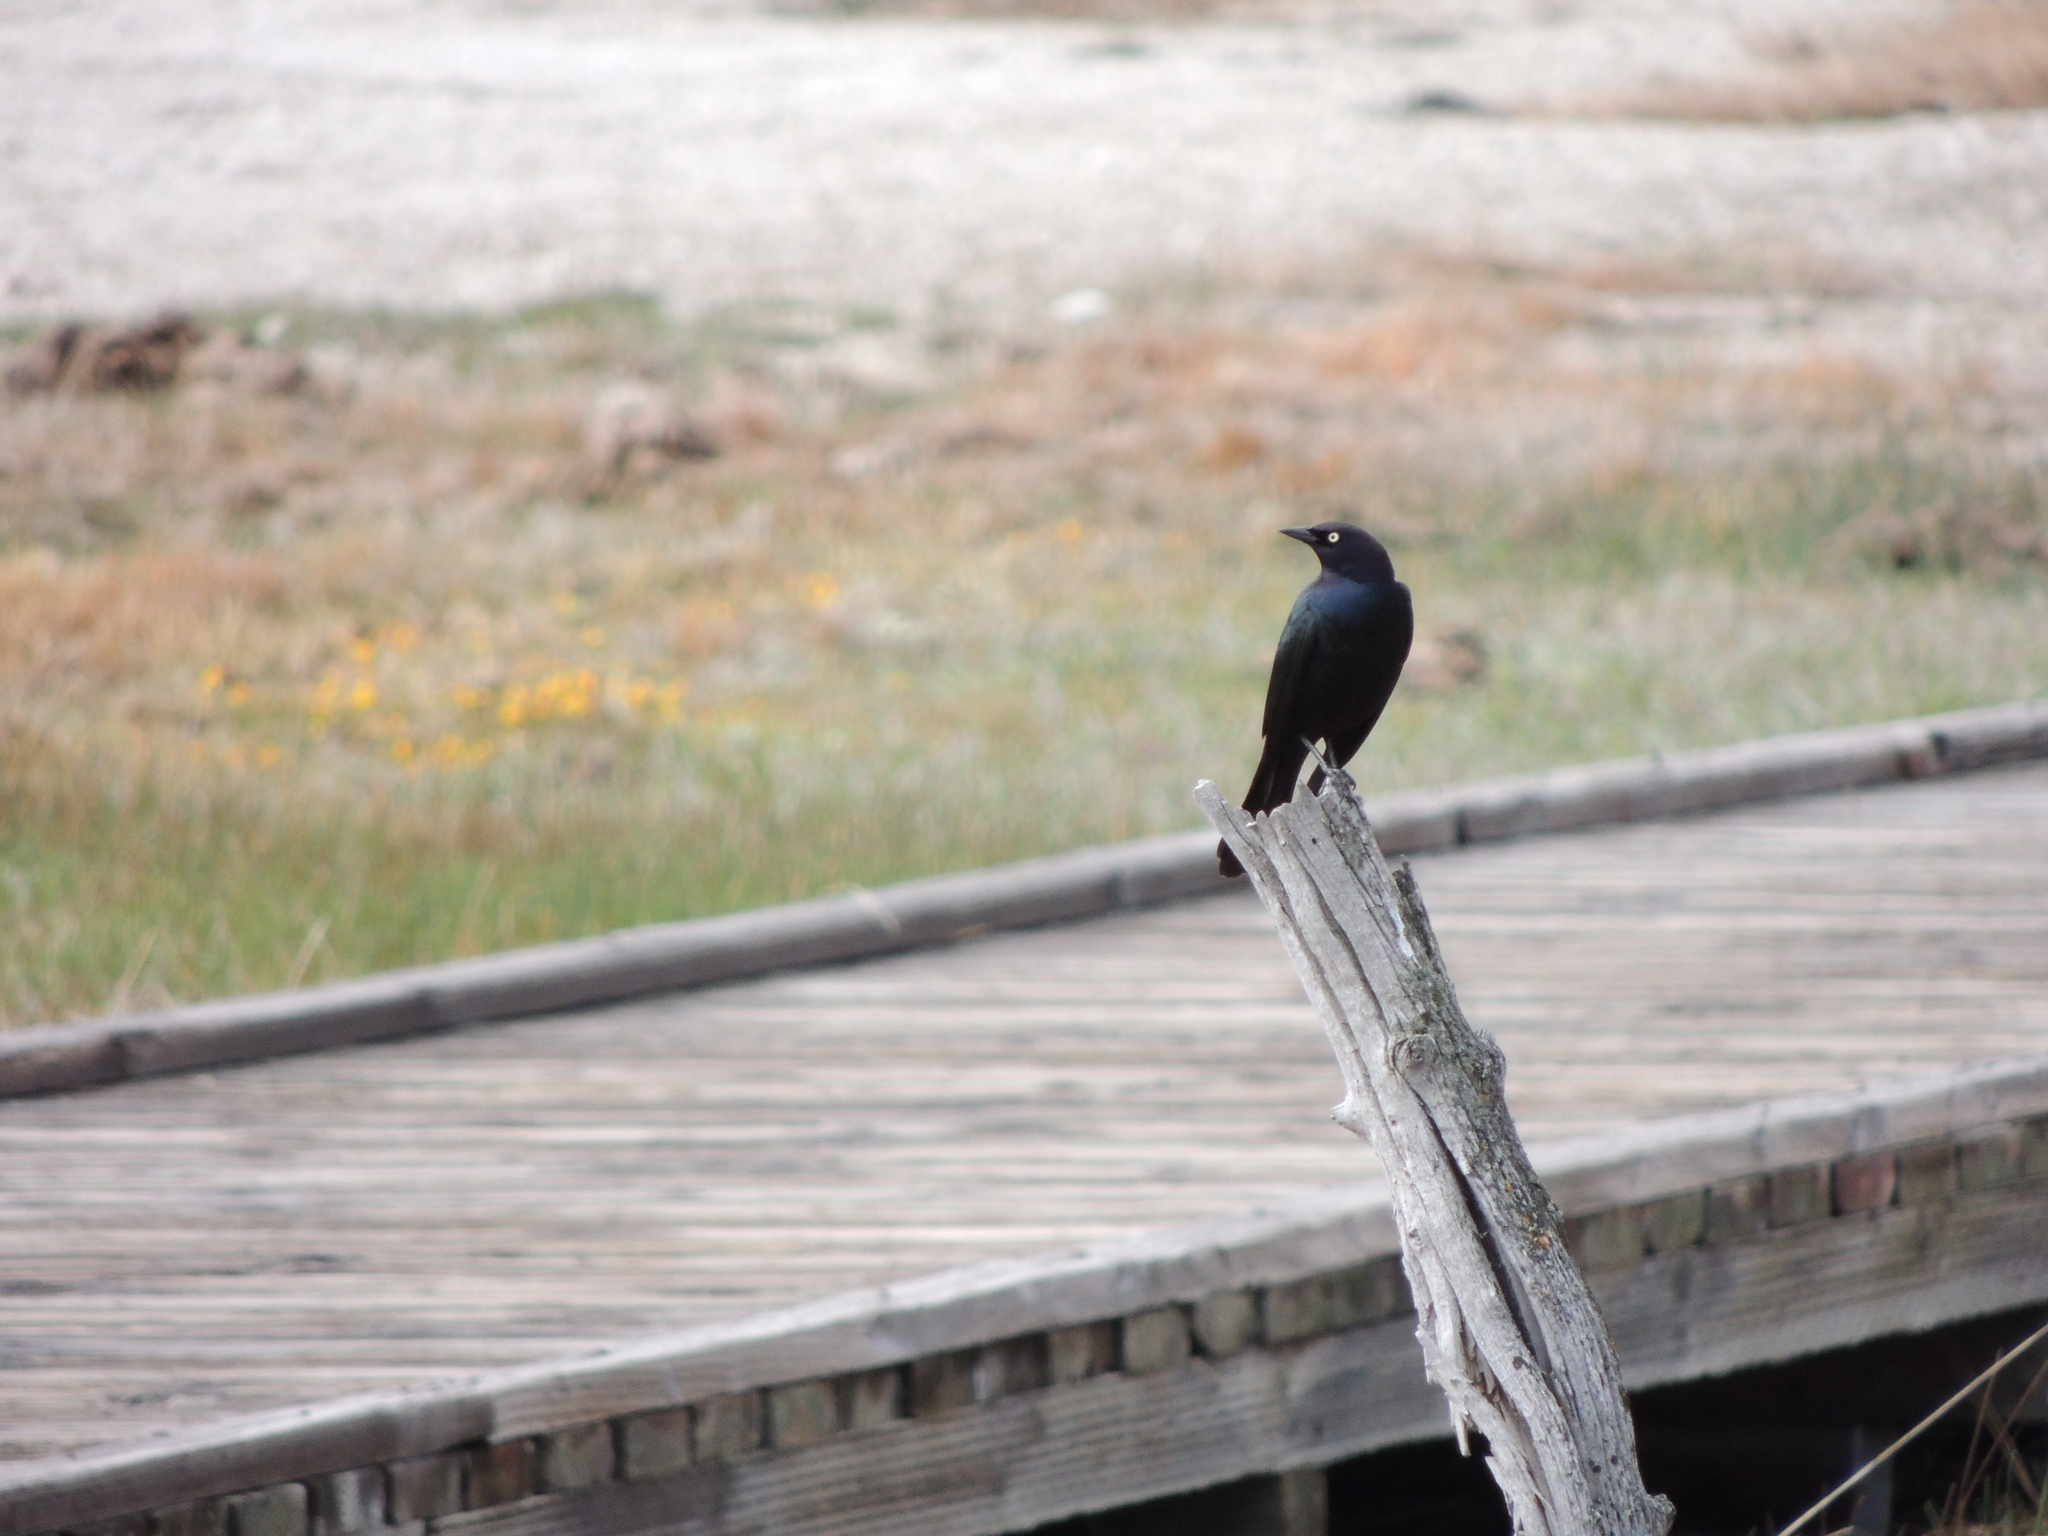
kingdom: Animalia
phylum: Chordata
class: Aves
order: Passeriformes
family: Icteridae
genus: Euphagus
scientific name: Euphagus cyanocephalus
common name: Brewer's blackbird
